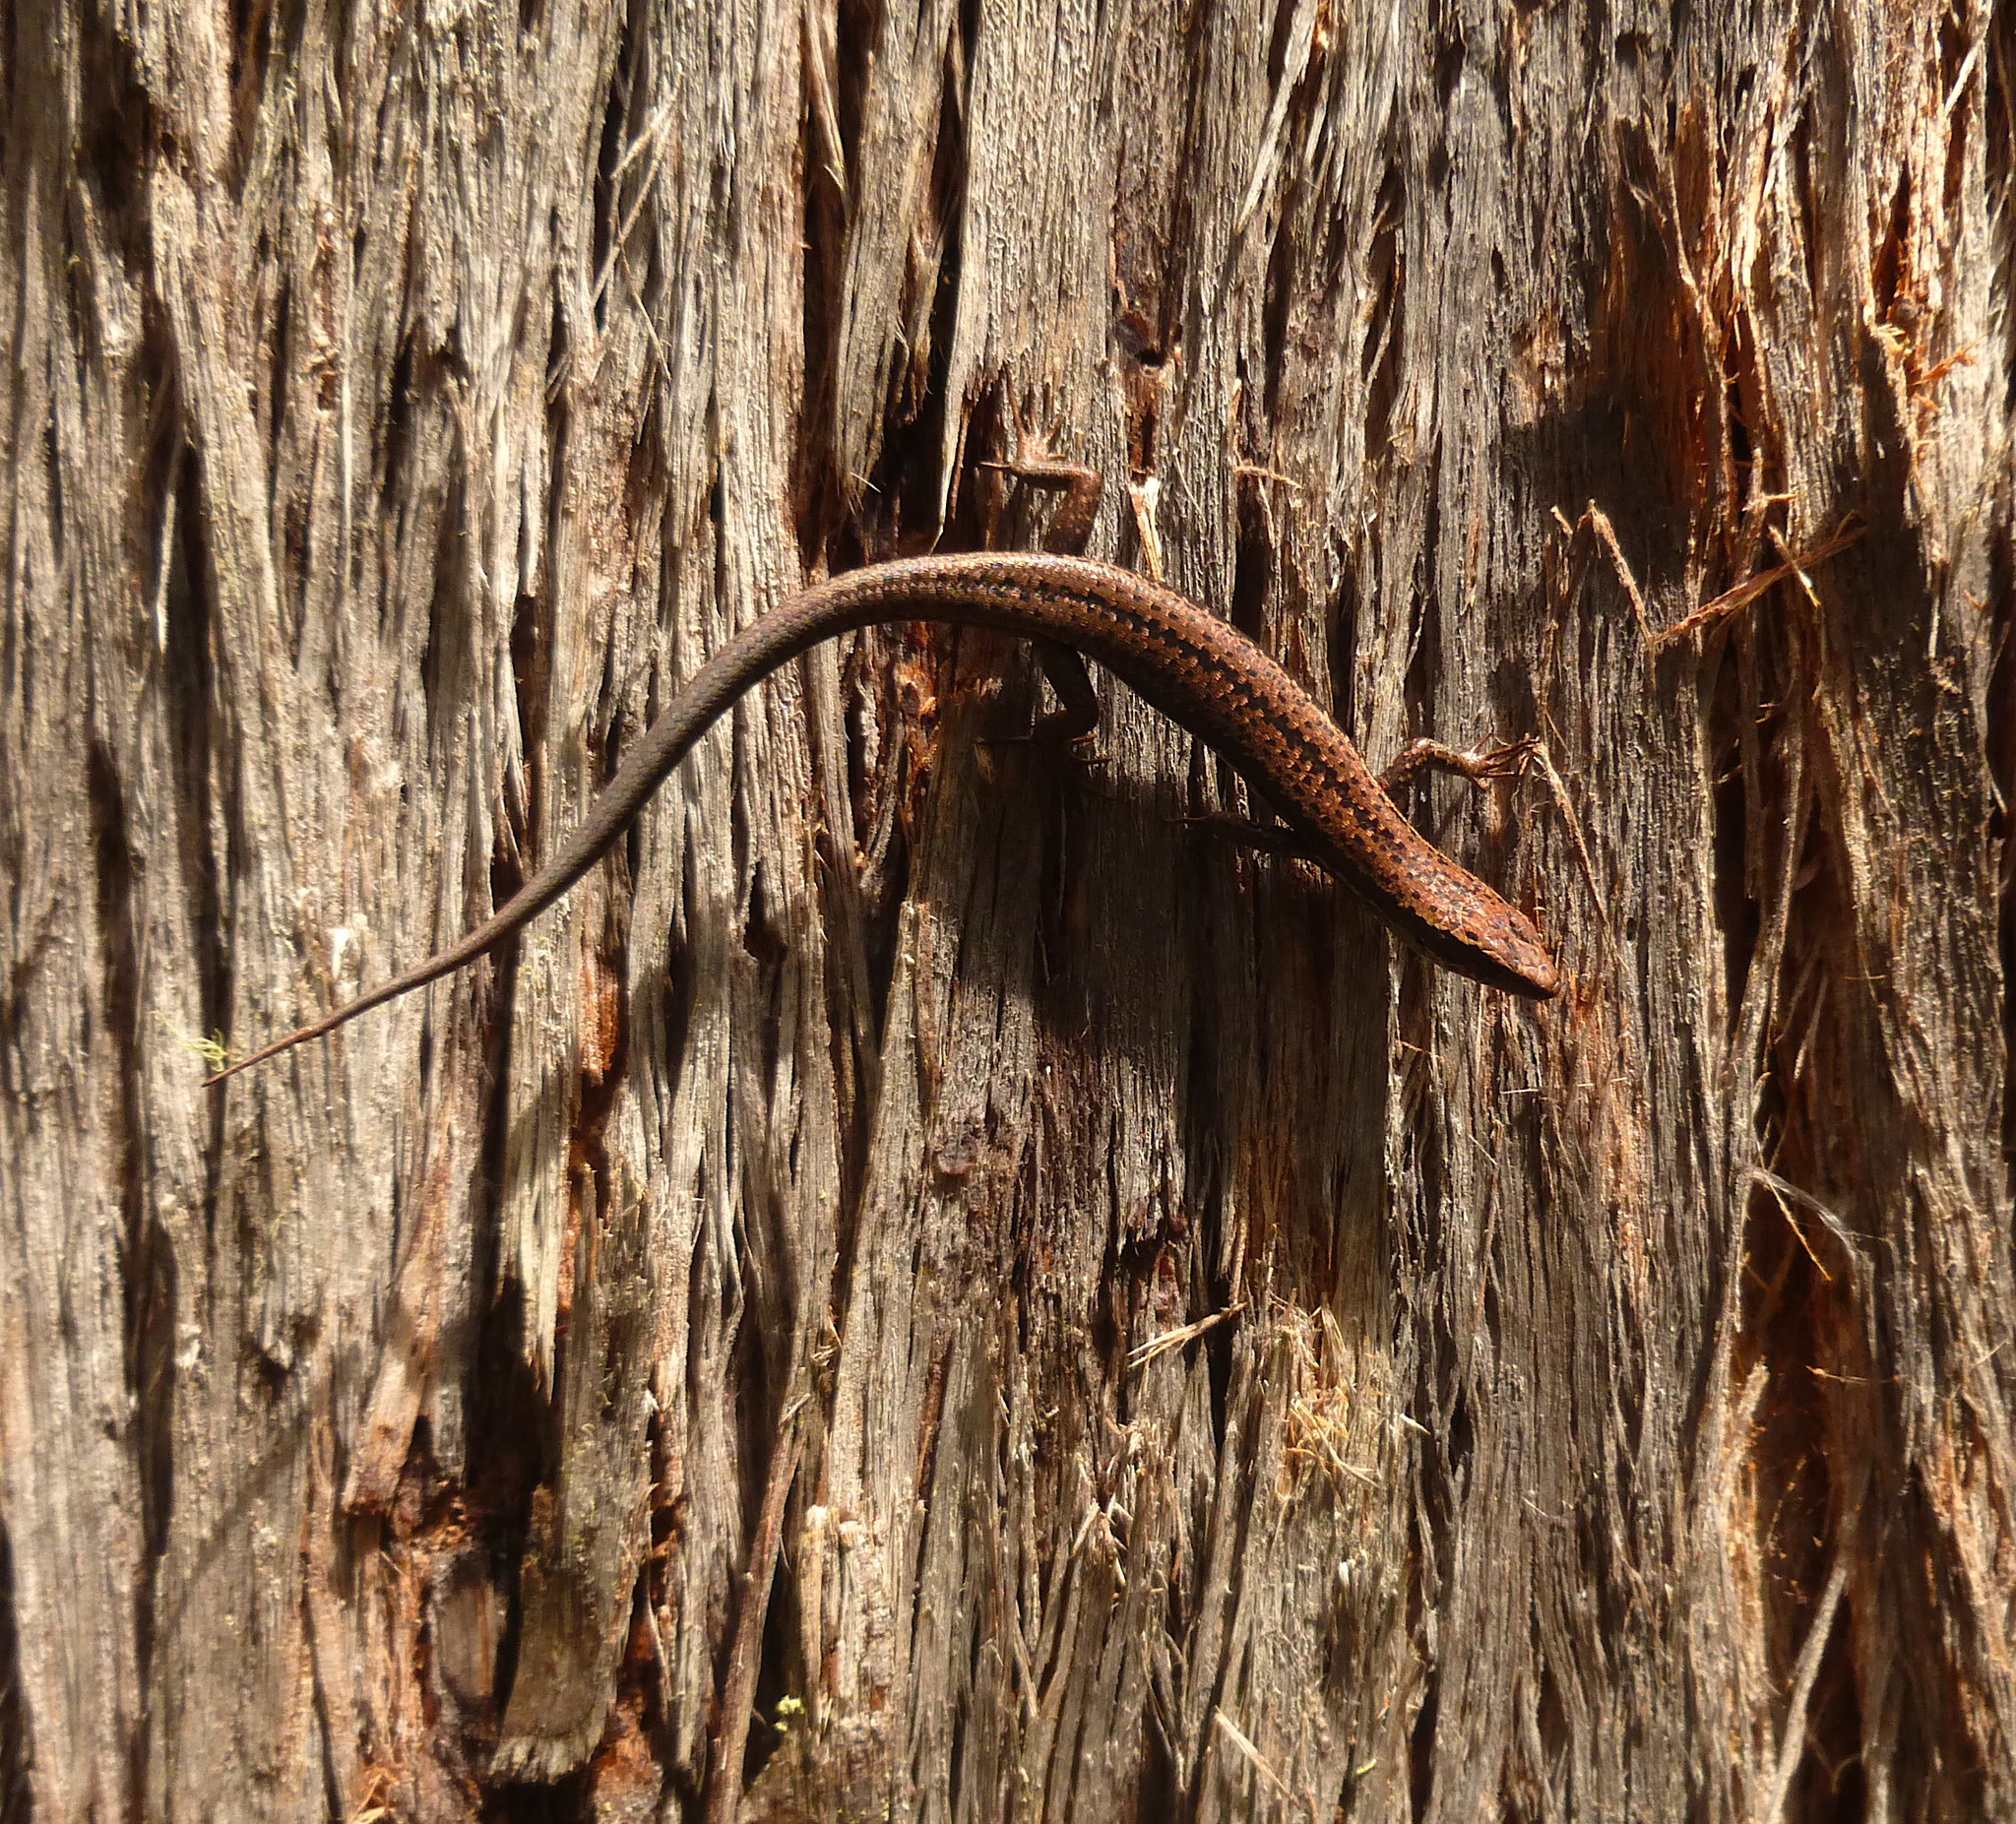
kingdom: Animalia
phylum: Chordata
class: Squamata
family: Scincidae
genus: Carinascincus
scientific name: Carinascincus pretiosus
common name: Agile cool-skink
